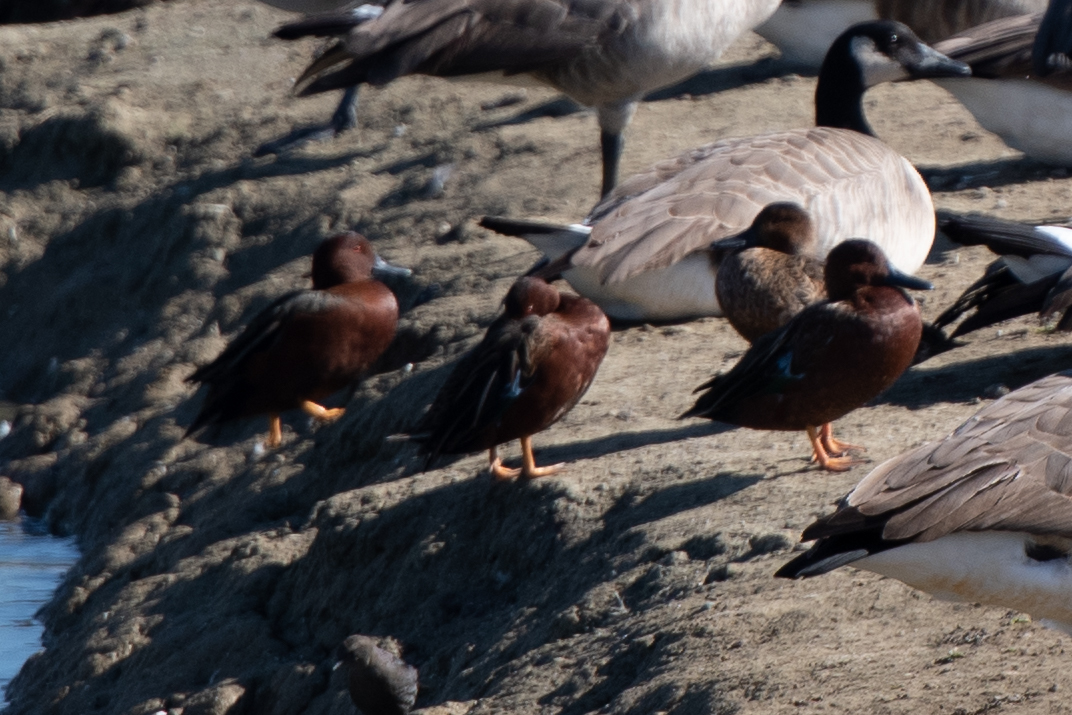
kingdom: Animalia
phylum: Chordata
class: Aves
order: Anseriformes
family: Anatidae
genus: Spatula
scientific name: Spatula cyanoptera
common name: Cinnamon teal
